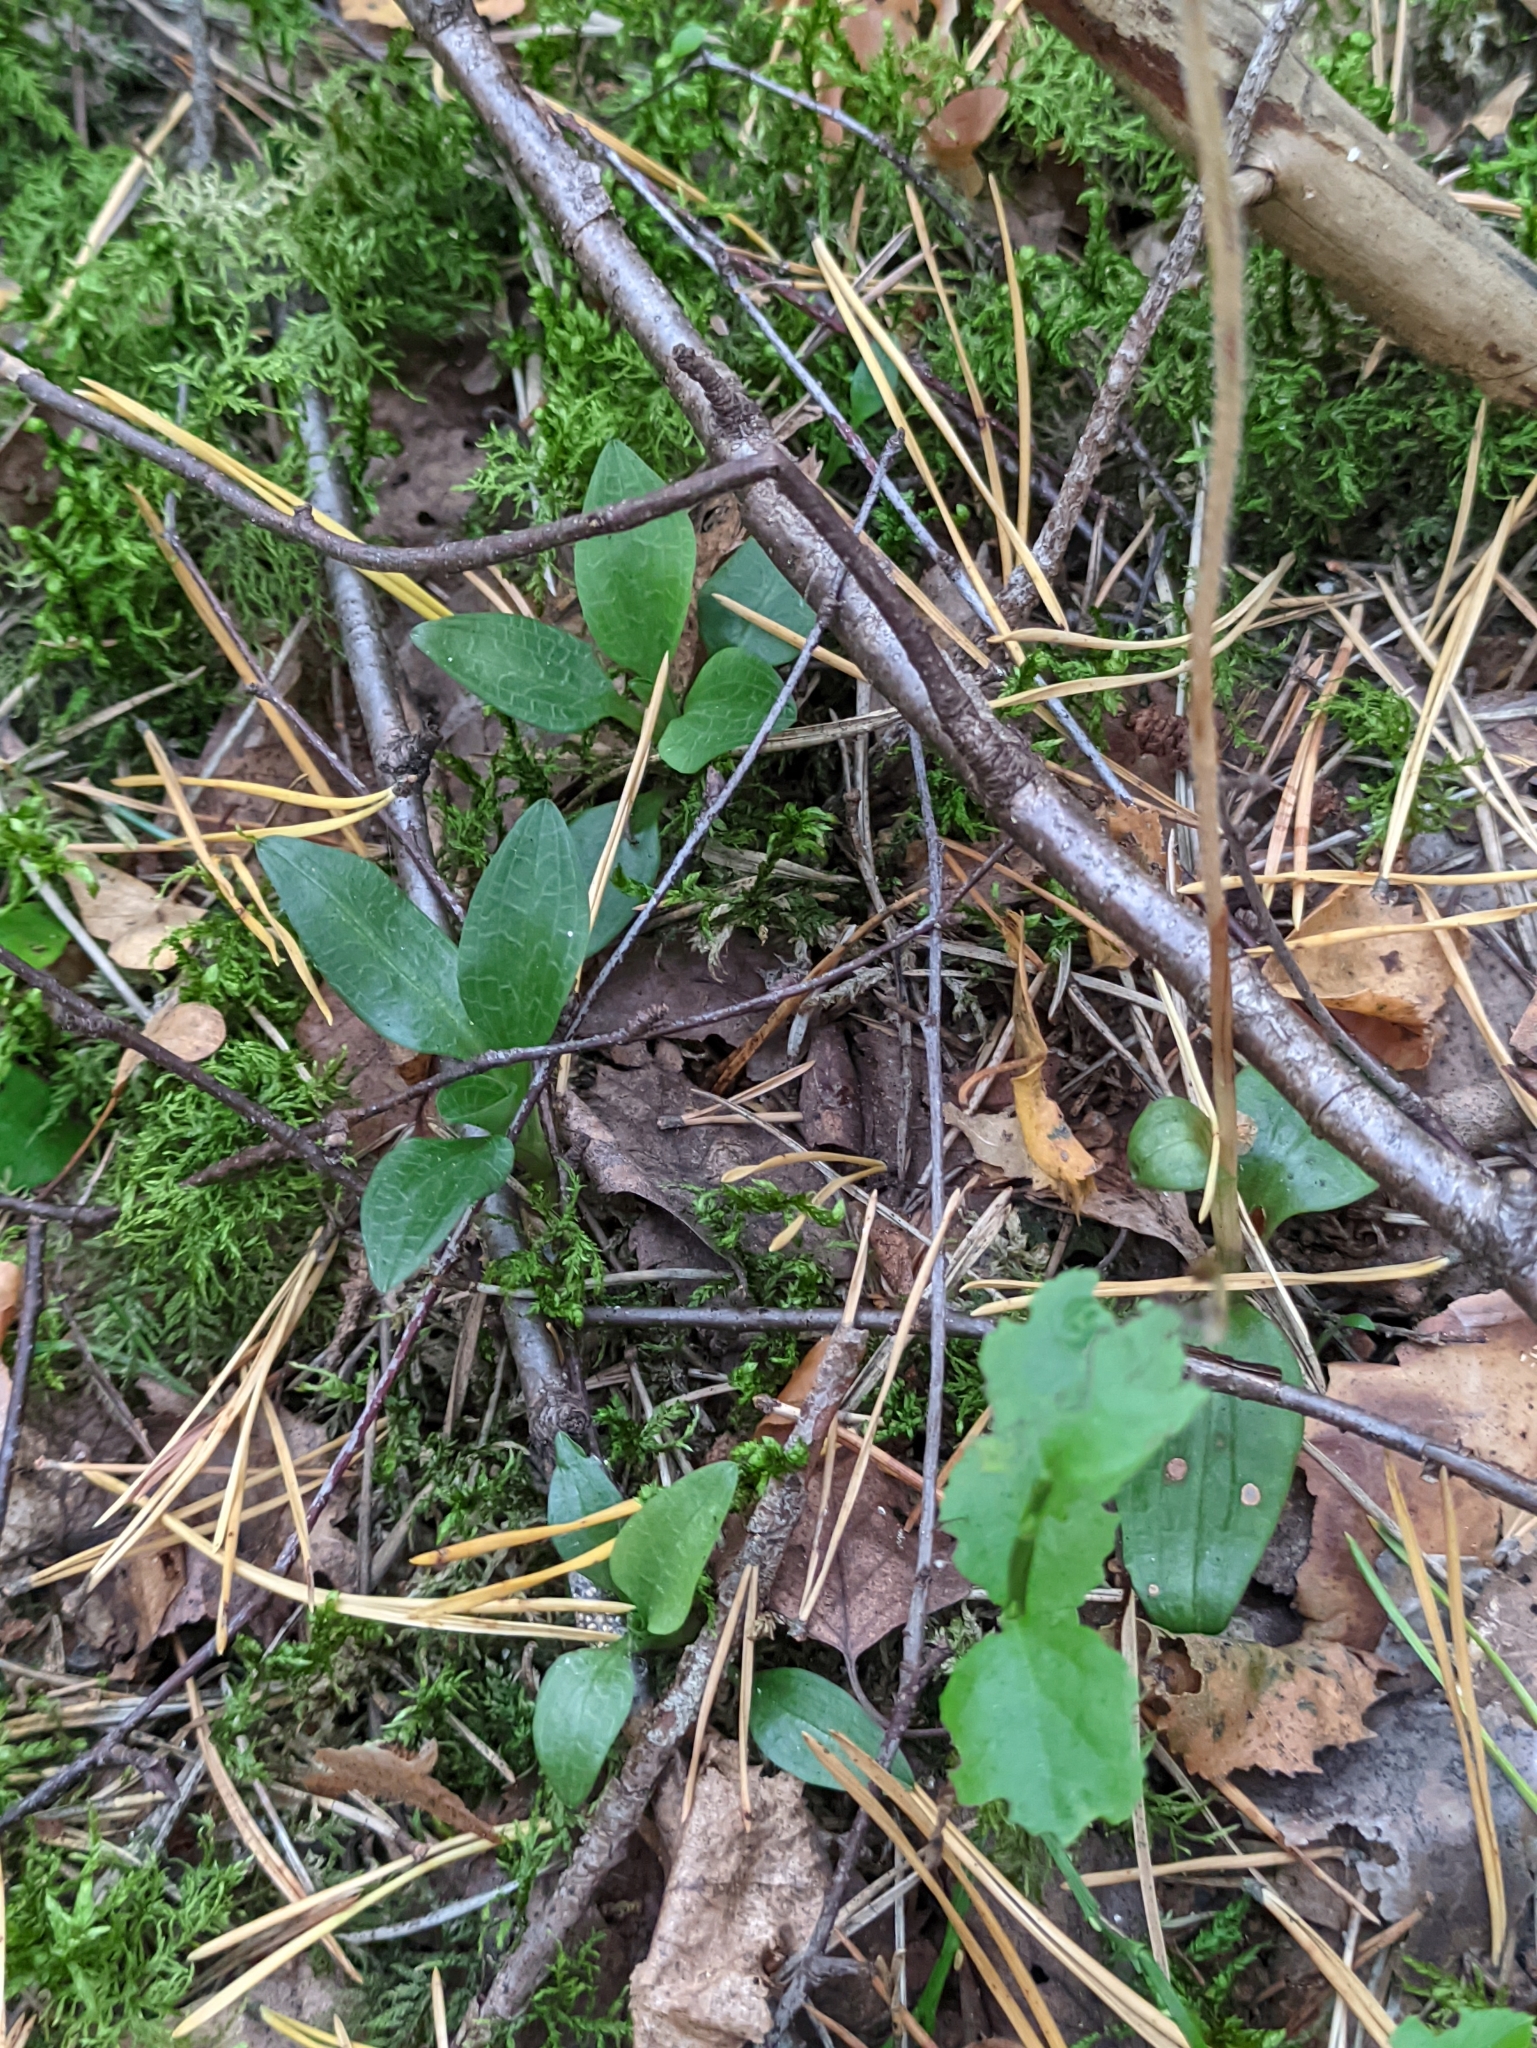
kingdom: Plantae
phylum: Tracheophyta
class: Liliopsida
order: Asparagales
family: Orchidaceae
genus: Goodyera
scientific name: Goodyera repens
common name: Creeping lady's-tresses
